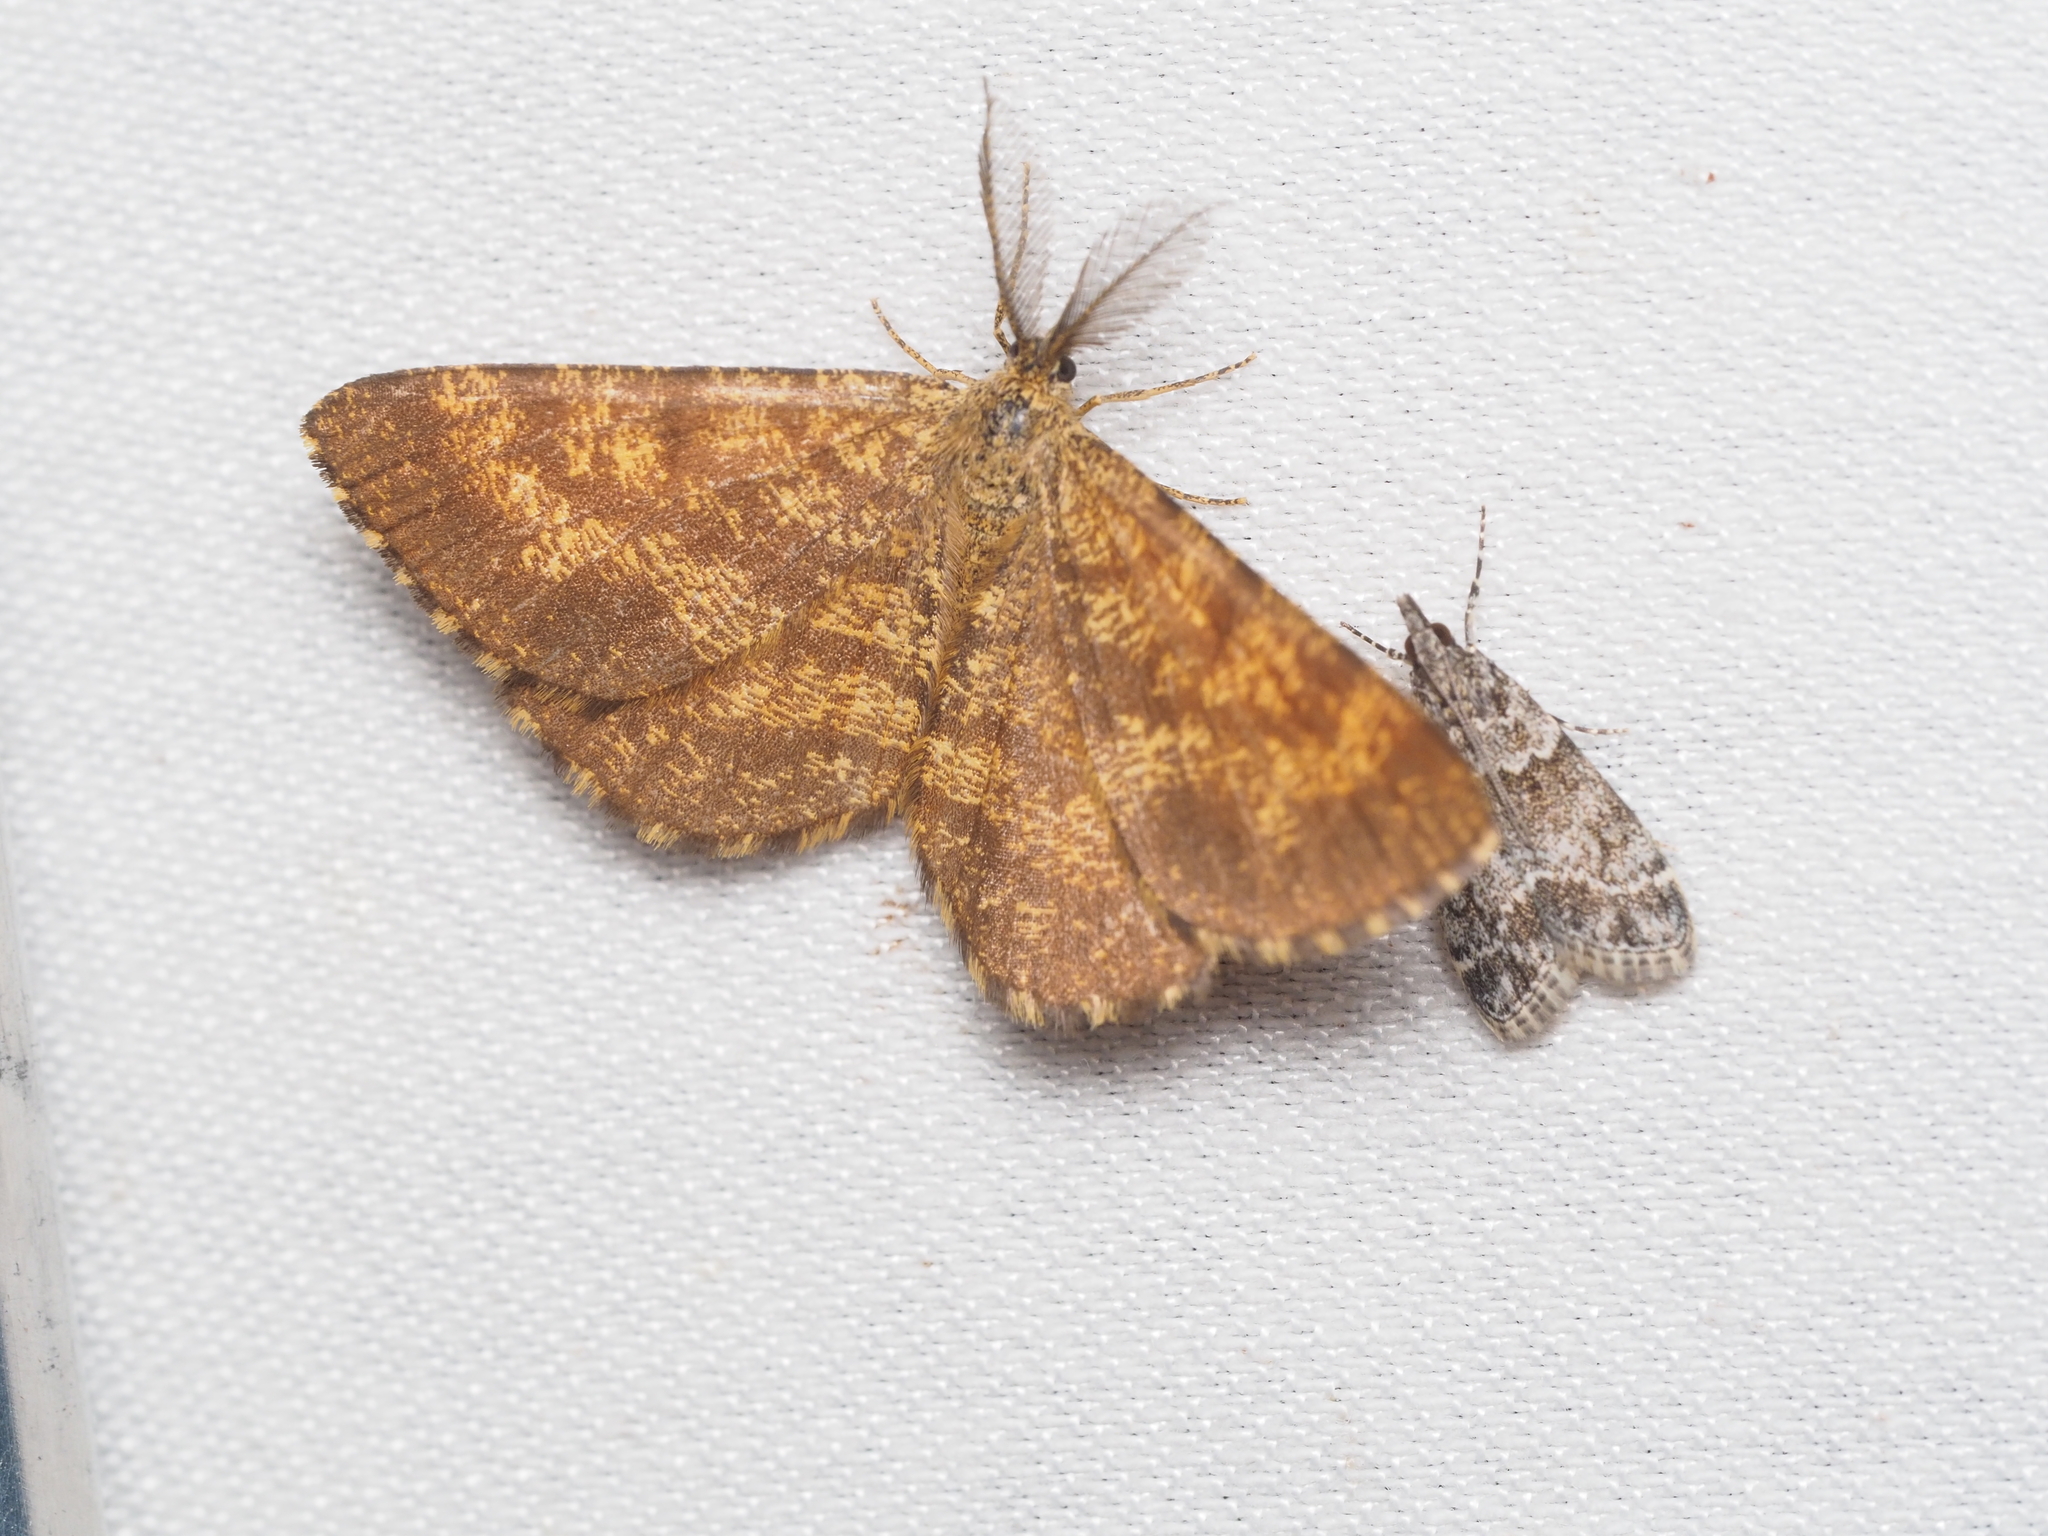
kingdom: Animalia
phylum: Arthropoda
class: Insecta
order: Lepidoptera
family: Geometridae
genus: Ematurga
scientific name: Ematurga atomaria
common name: Common heath
